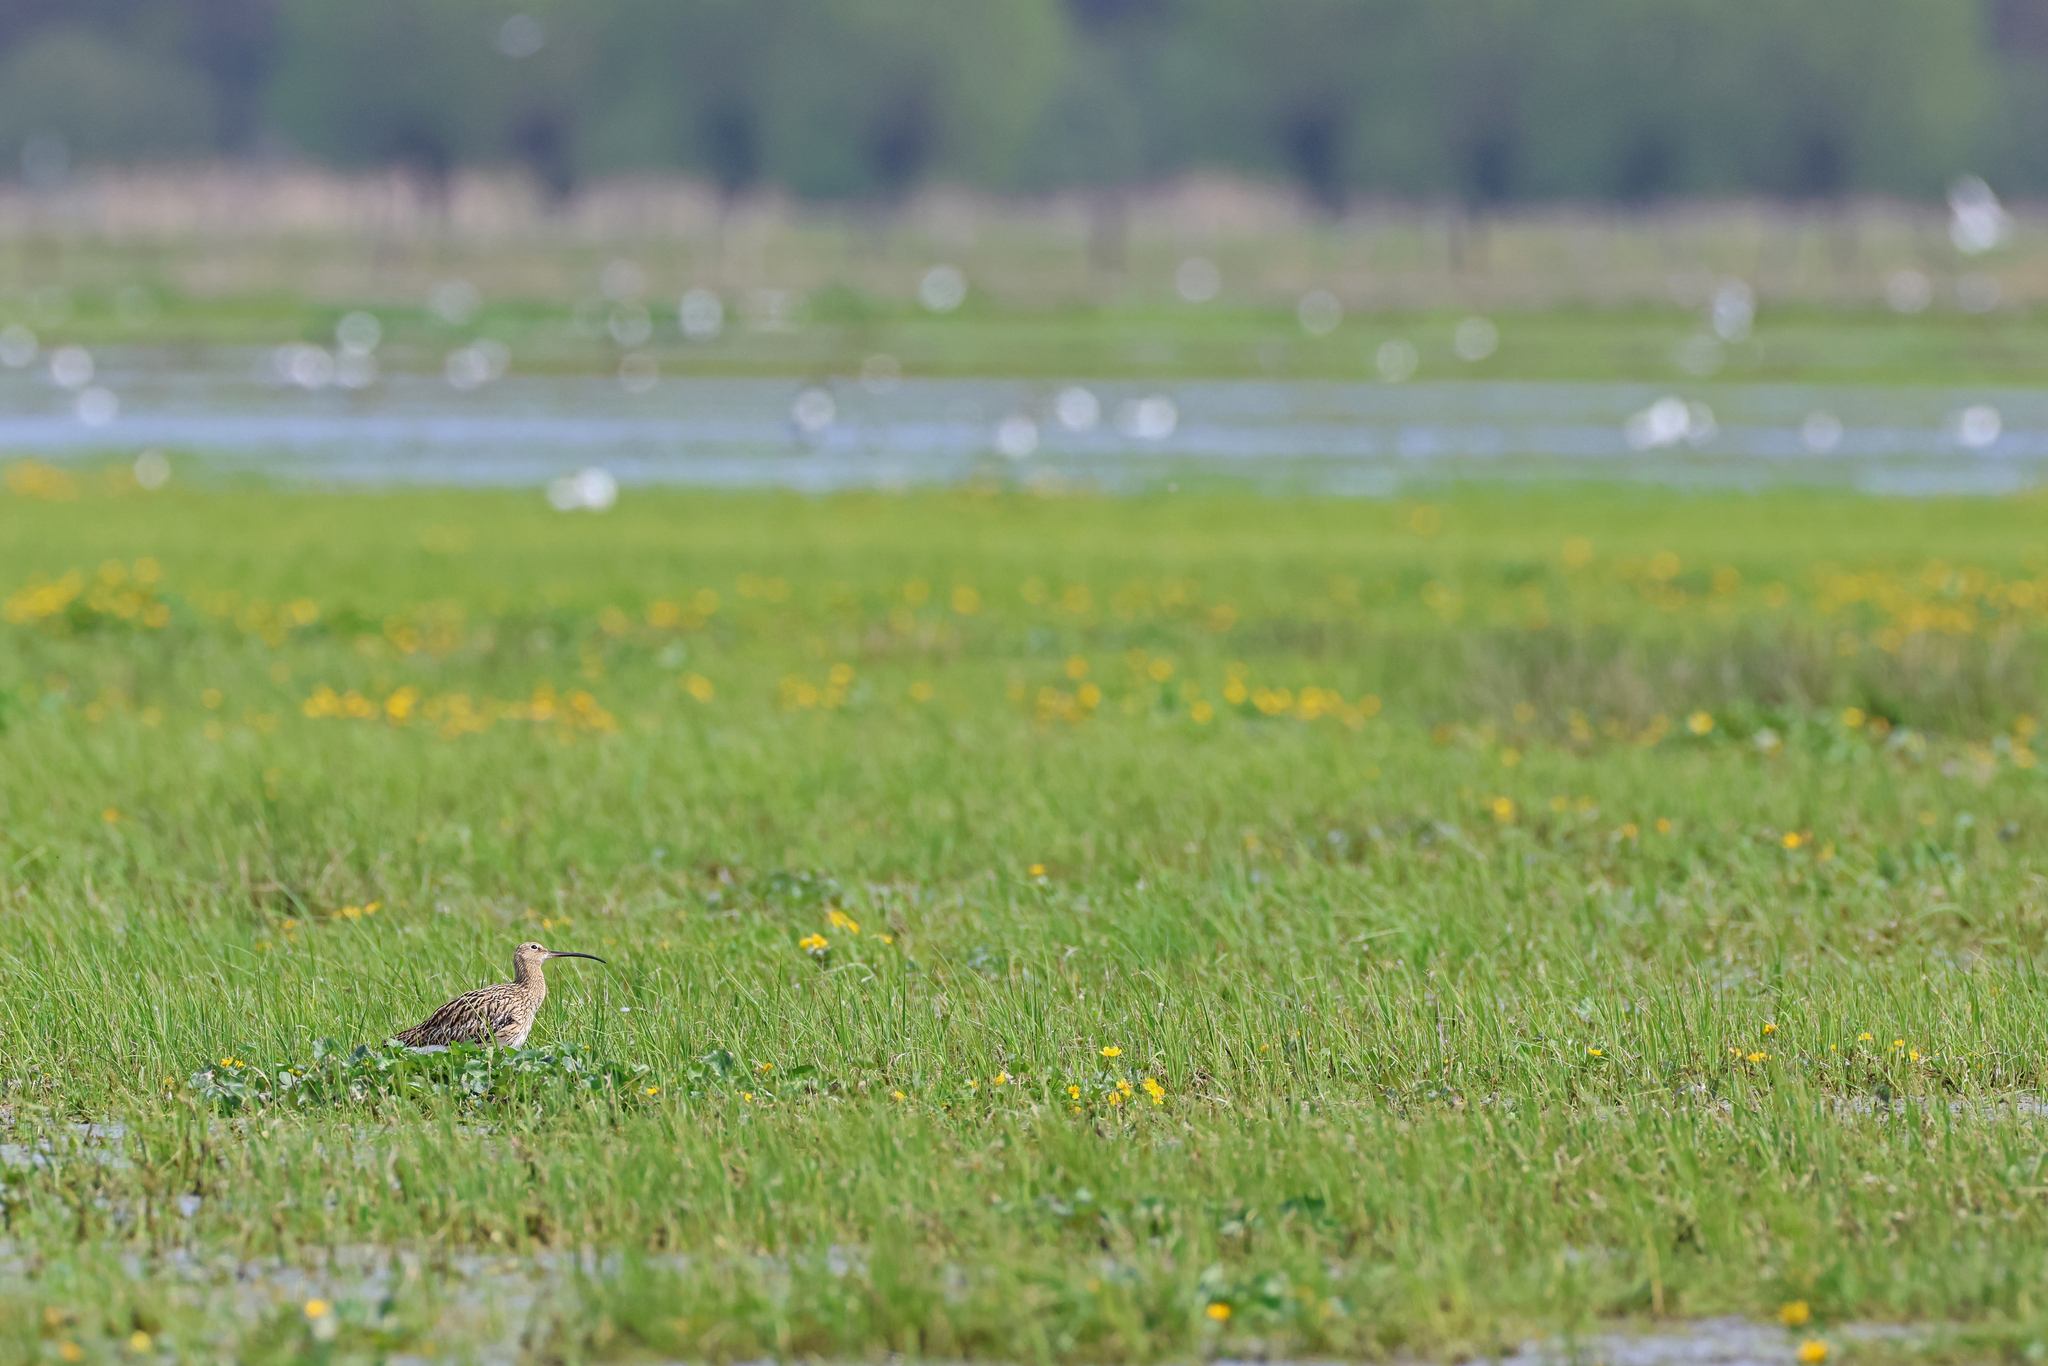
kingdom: Animalia
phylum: Chordata
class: Aves
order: Charadriiformes
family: Scolopacidae
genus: Numenius
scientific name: Numenius arquata
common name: Eurasian curlew
